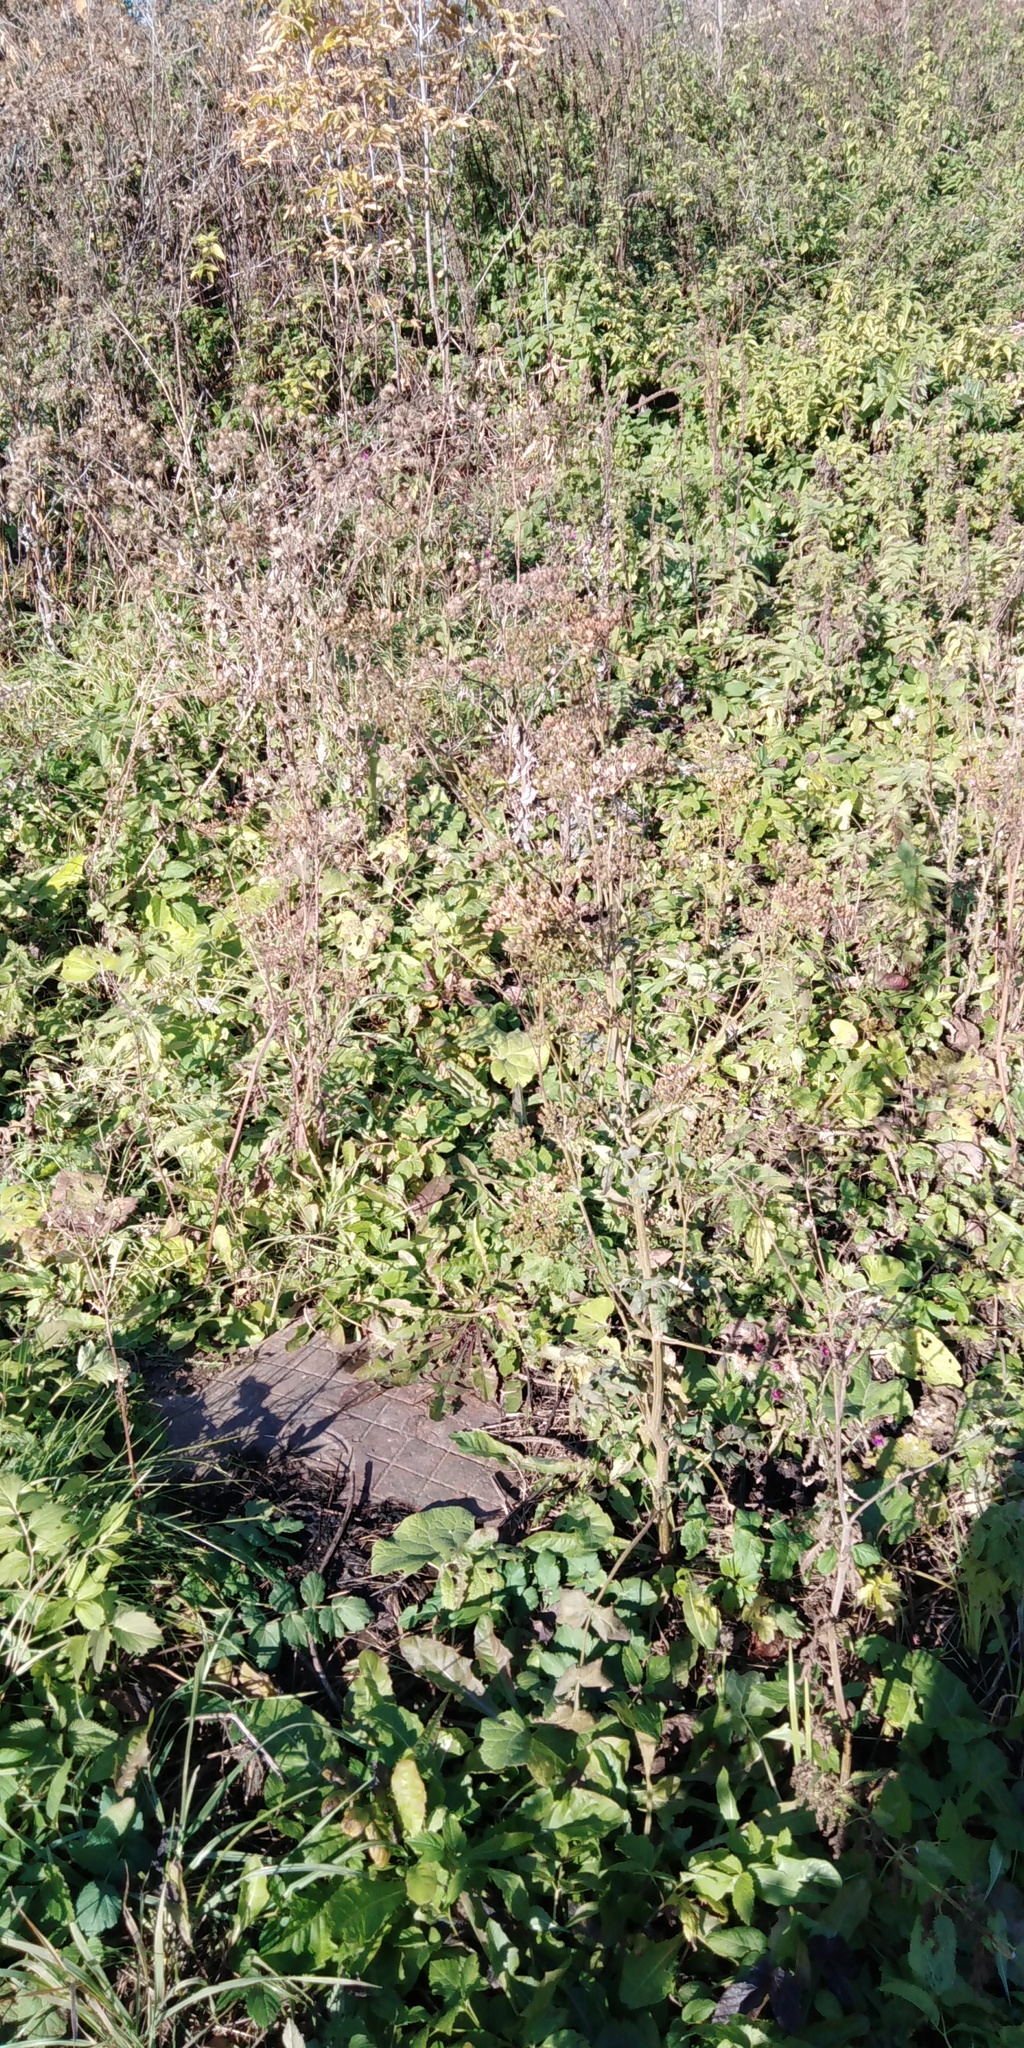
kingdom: Plantae
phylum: Tracheophyta
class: Magnoliopsida
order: Apiales
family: Apiaceae
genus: Pastinaca
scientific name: Pastinaca sativa
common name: Wild parsnip
